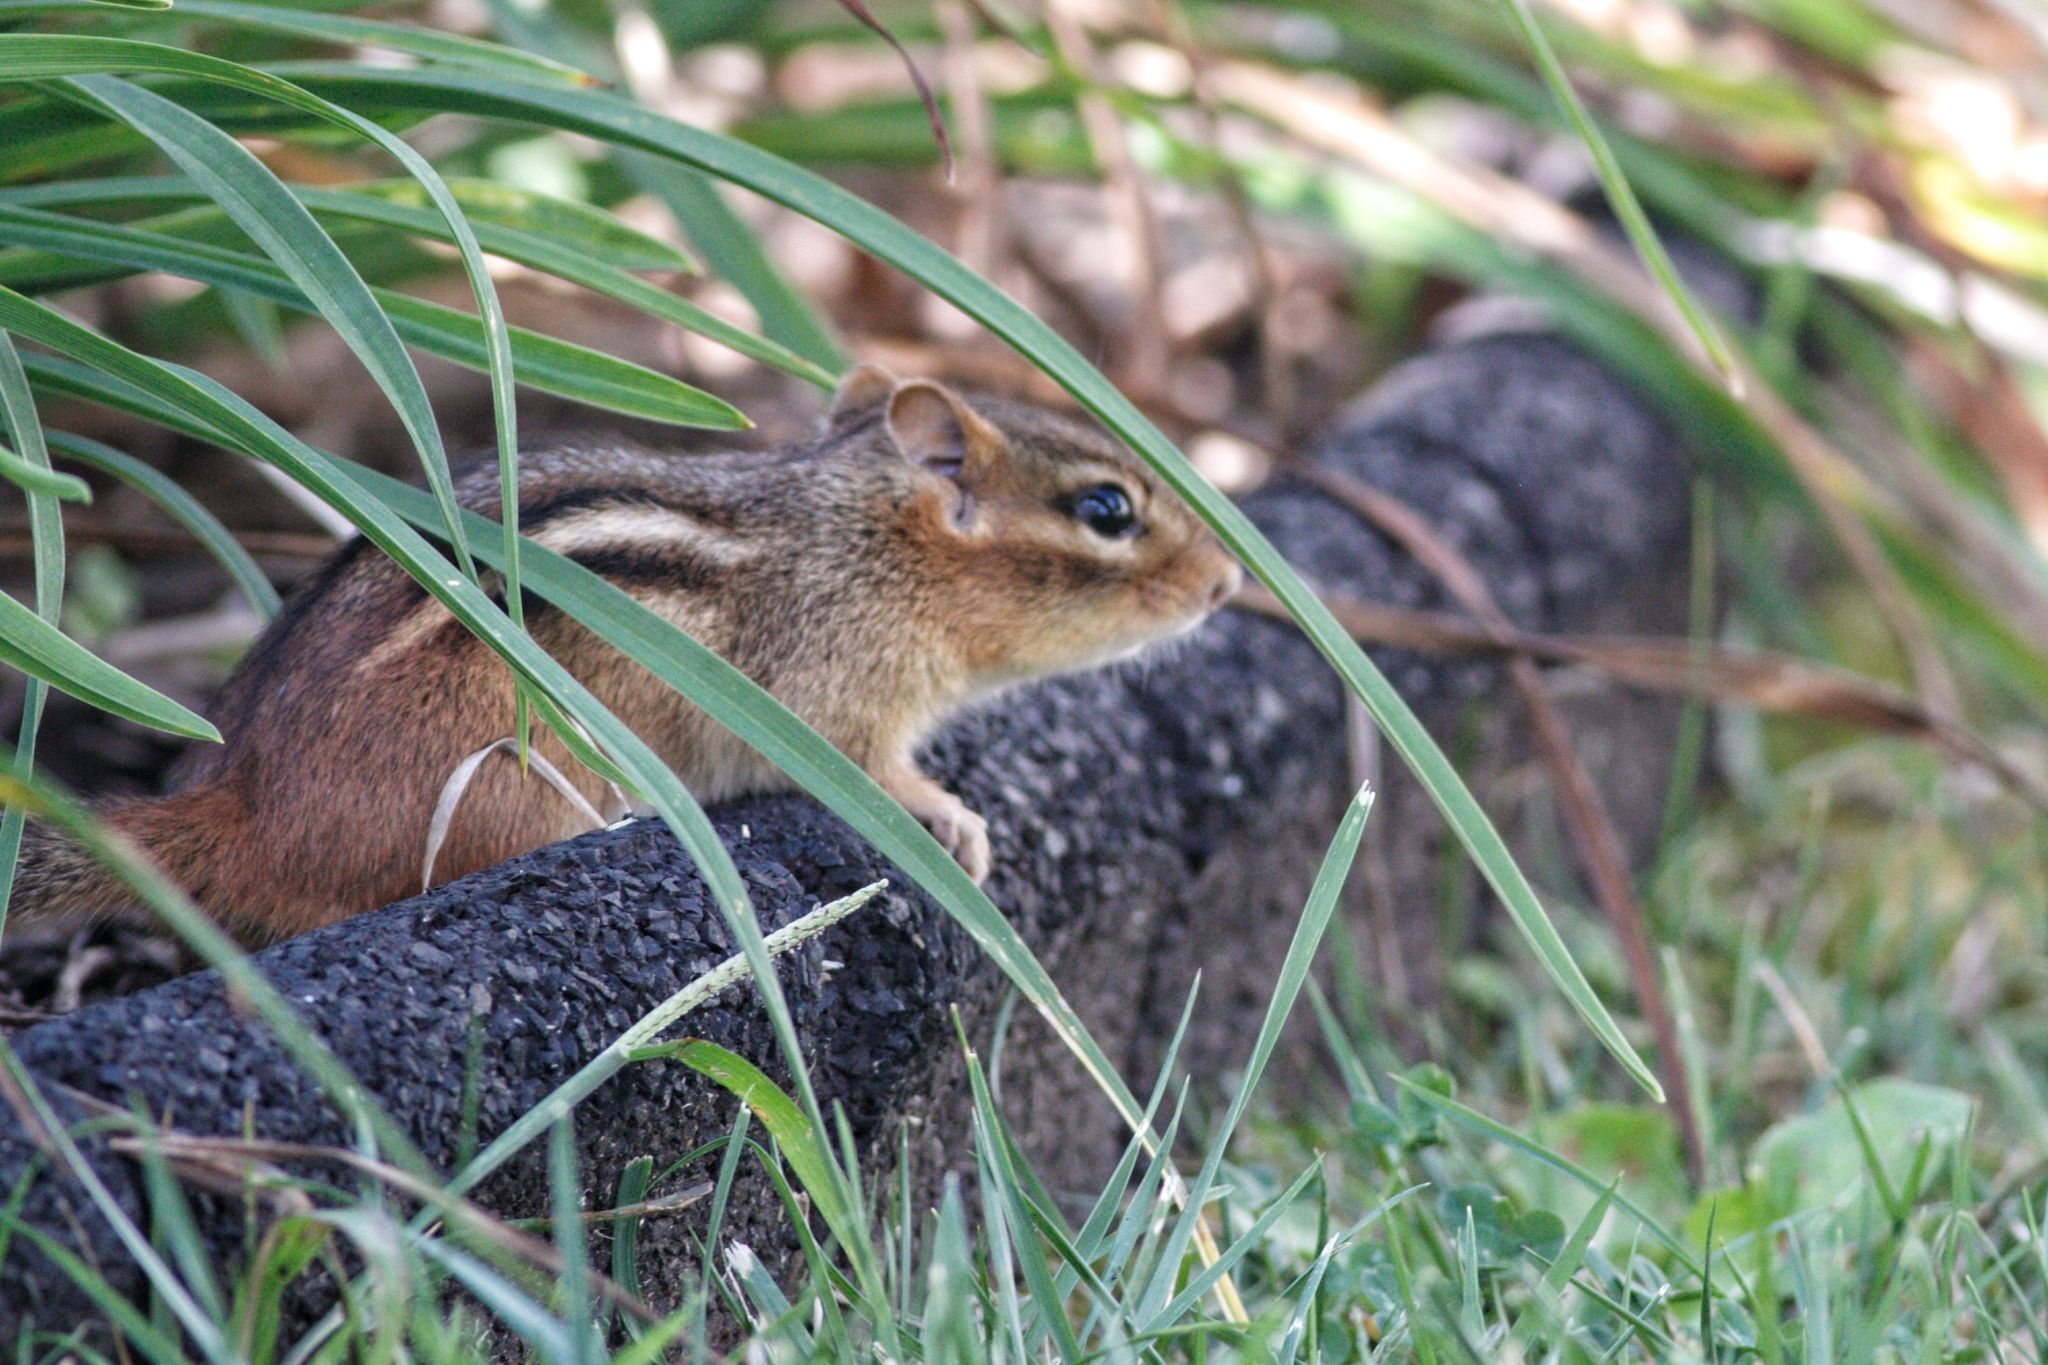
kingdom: Animalia
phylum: Chordata
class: Mammalia
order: Rodentia
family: Sciuridae
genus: Tamias
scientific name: Tamias striatus
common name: Eastern chipmunk
